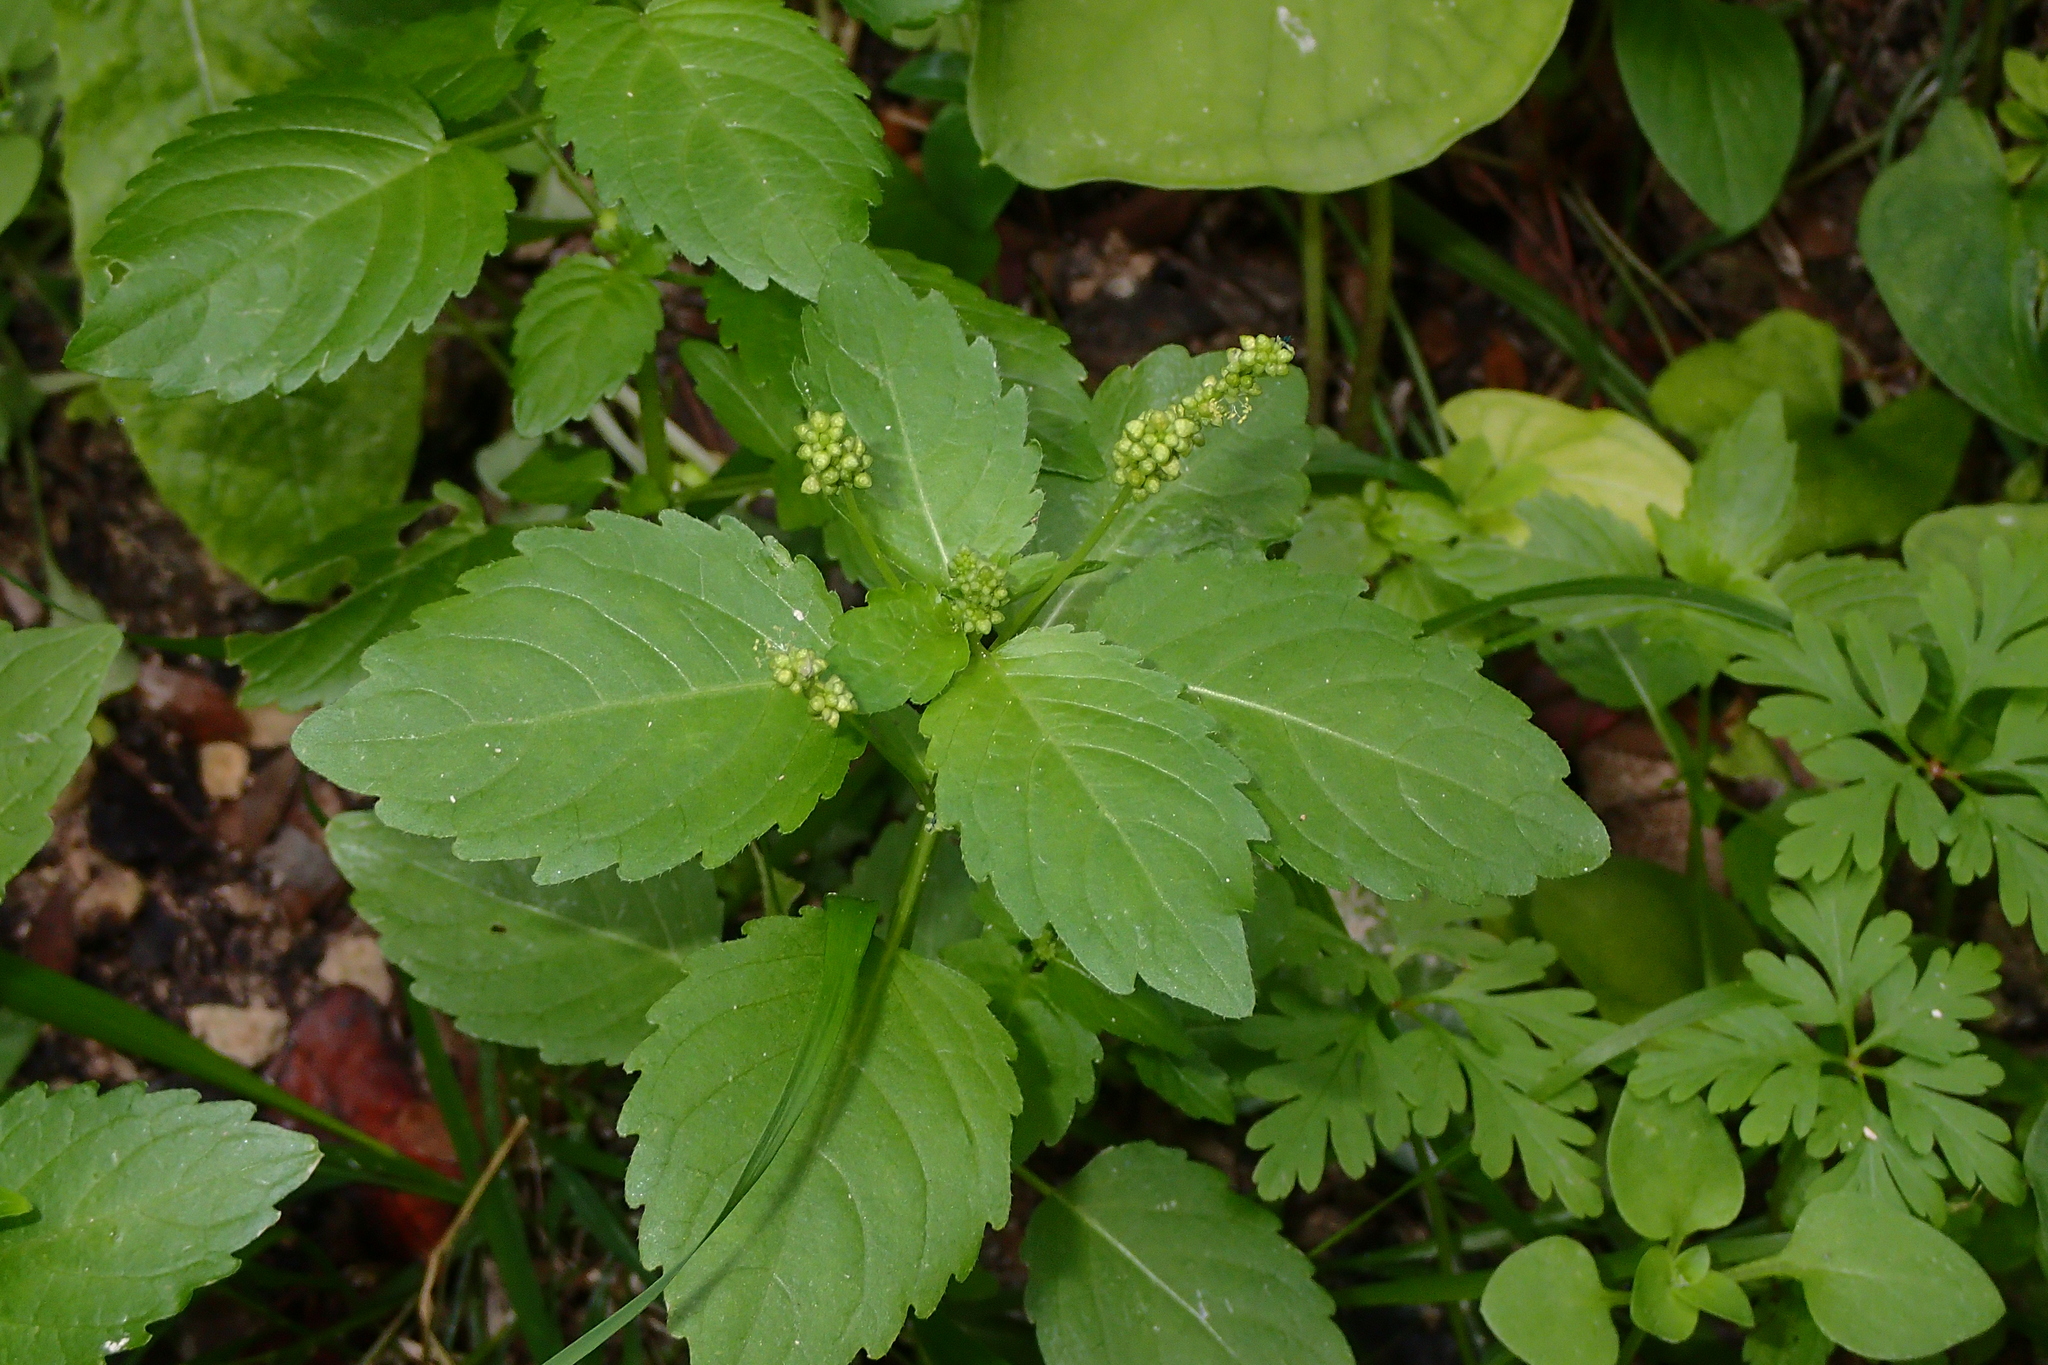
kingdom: Plantae
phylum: Tracheophyta
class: Magnoliopsida
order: Malpighiales
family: Euphorbiaceae
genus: Mercurialis
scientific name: Mercurialis annua
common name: Annual mercury
